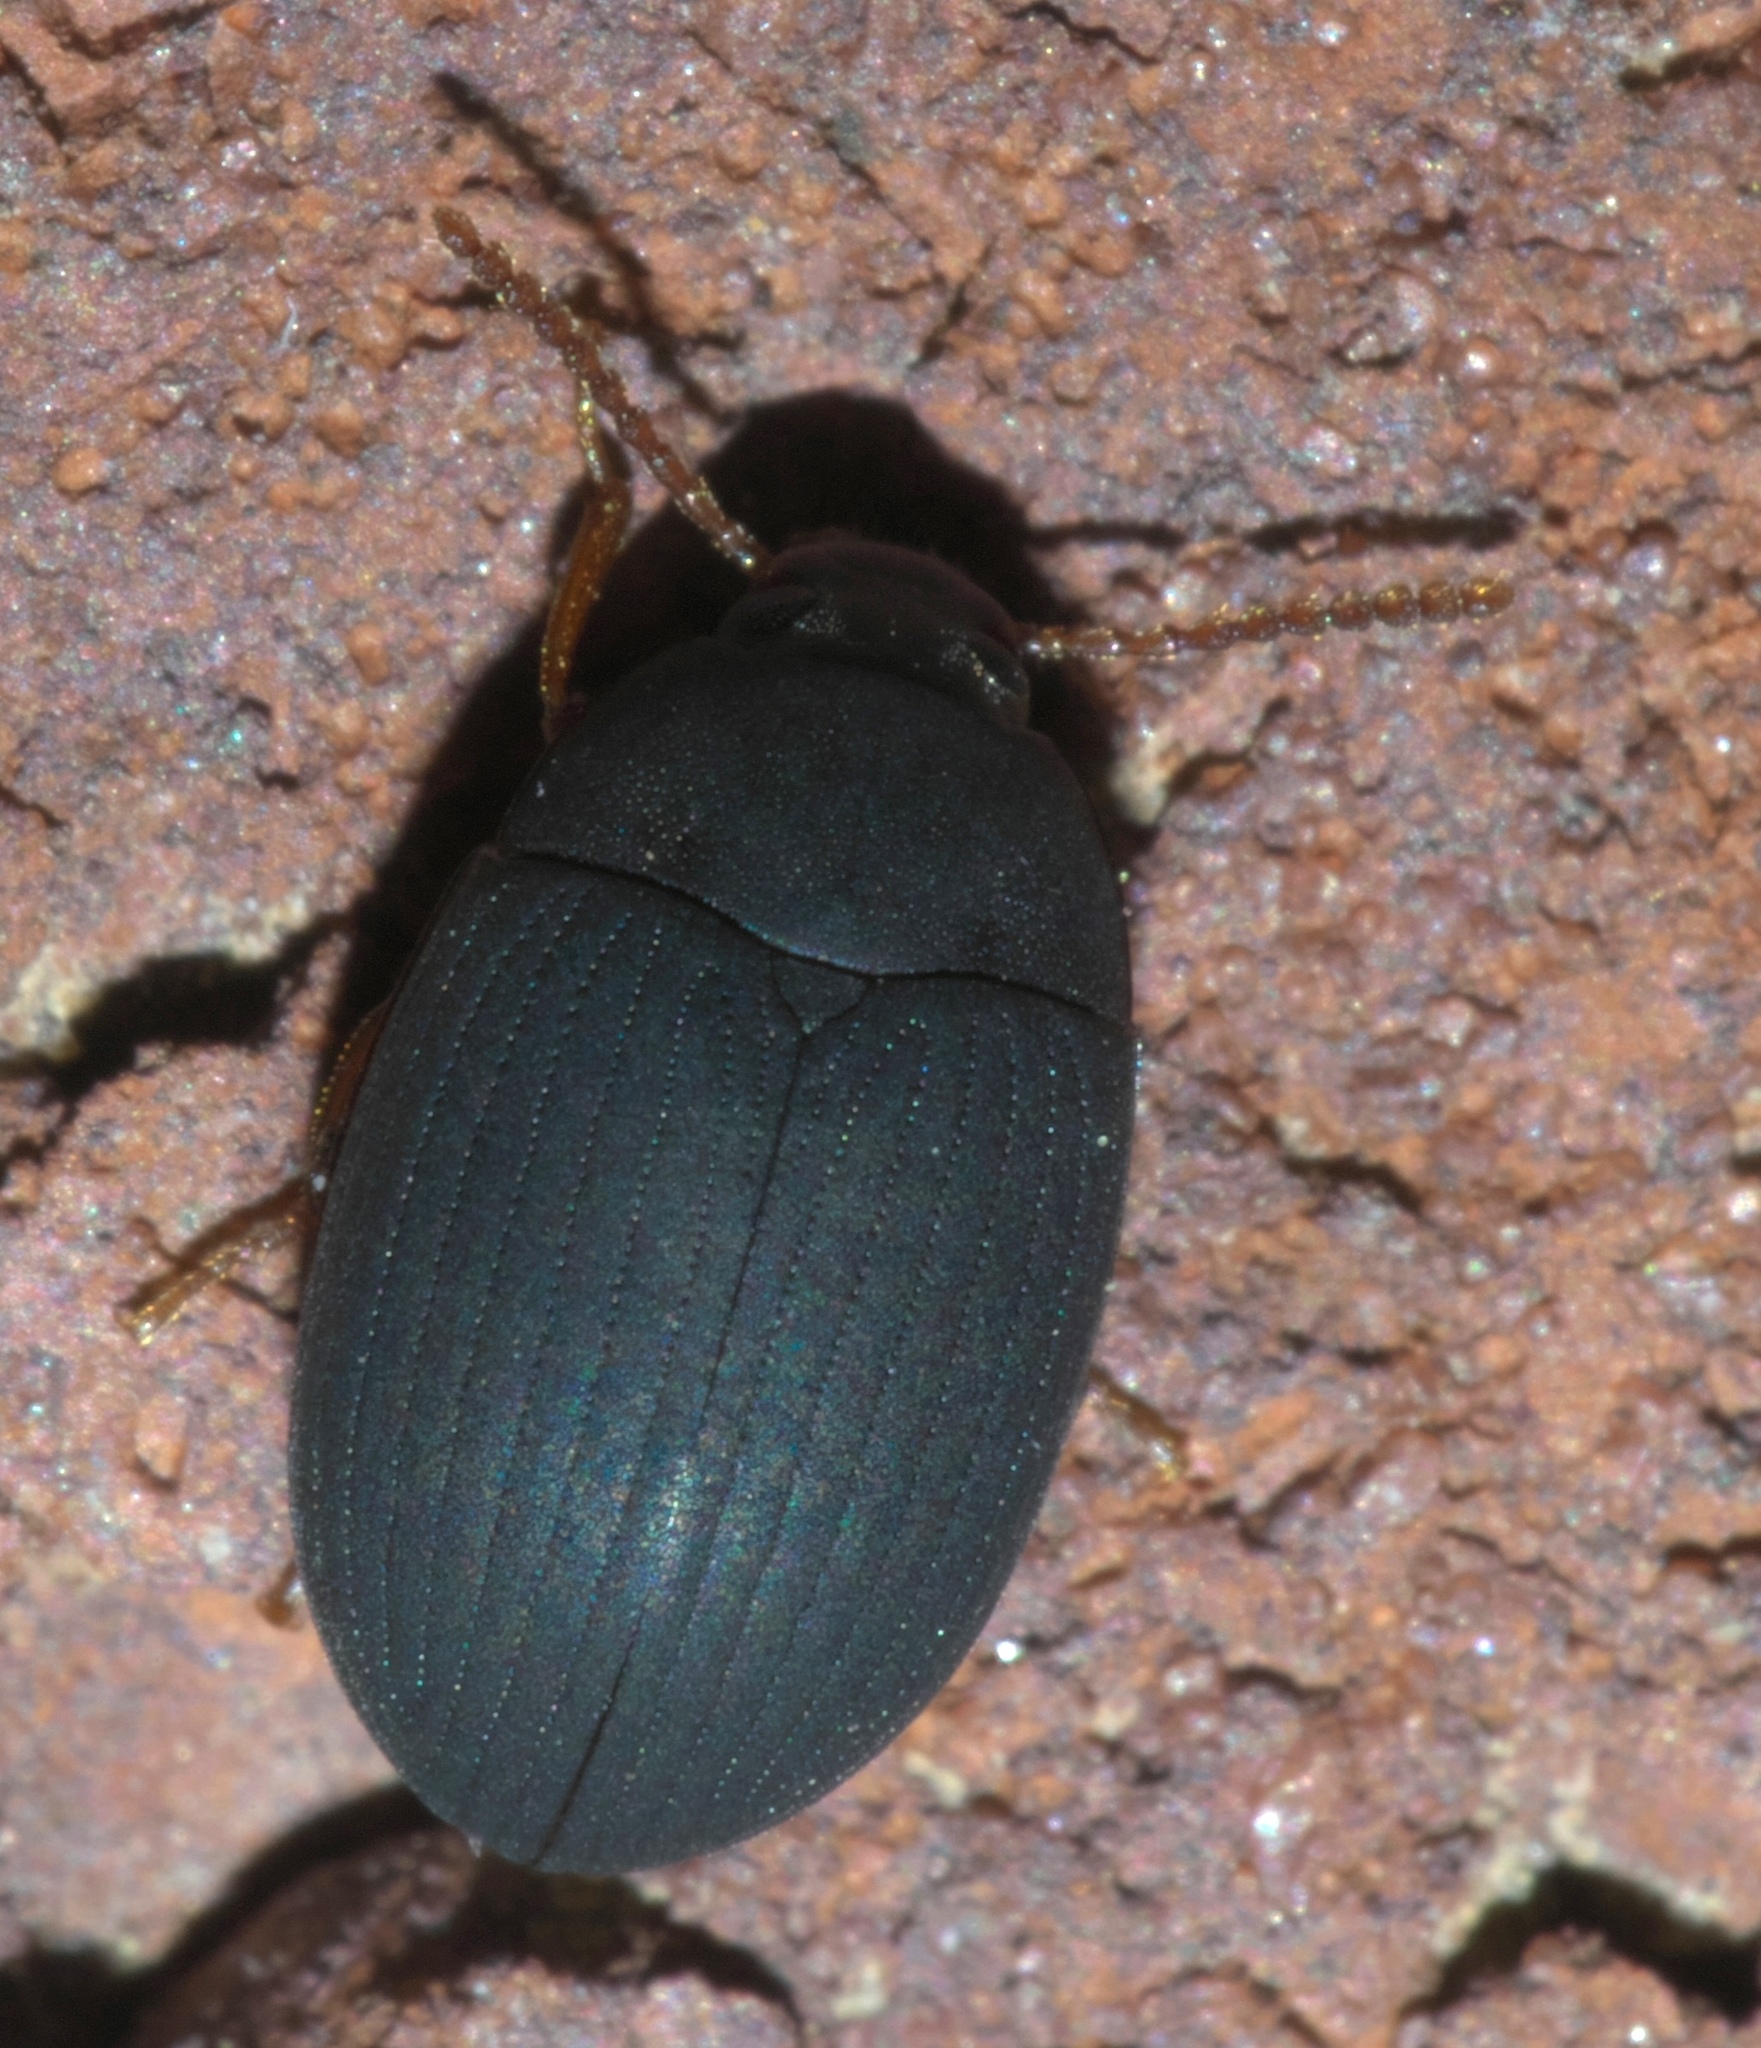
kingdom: Animalia
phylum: Arthropoda
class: Insecta
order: Coleoptera
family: Tenebrionidae
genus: Platydema
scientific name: Platydema ruficornis
